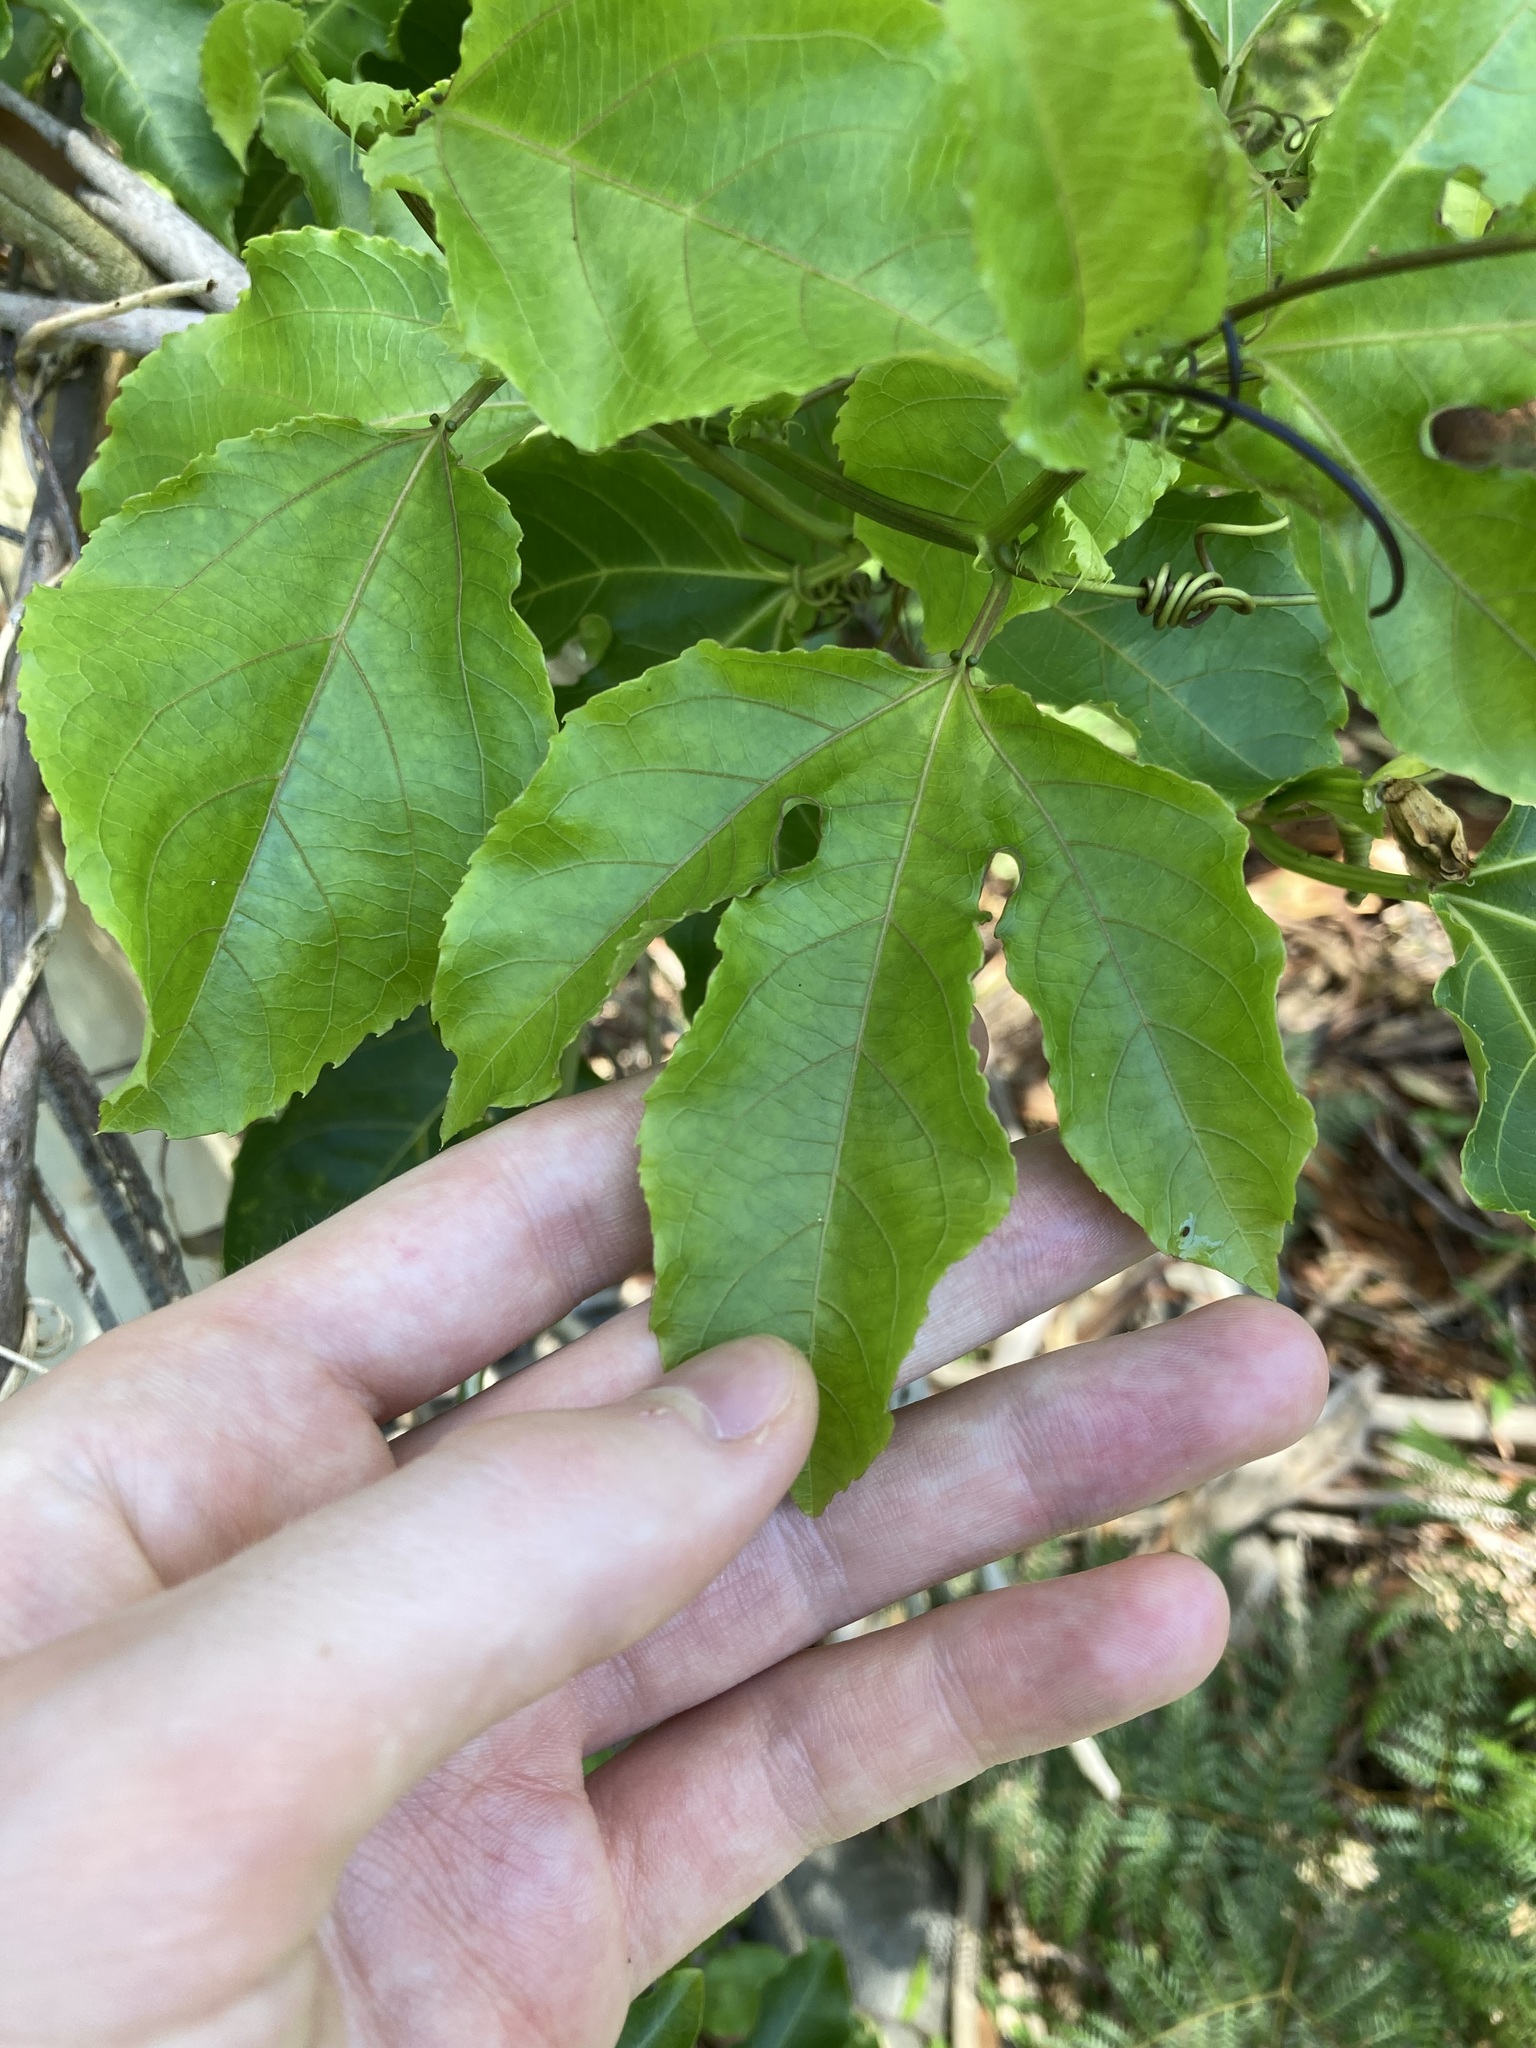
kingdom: Plantae
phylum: Tracheophyta
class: Magnoliopsida
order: Malpighiales
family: Passifloraceae
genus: Passiflora
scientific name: Passiflora edulis
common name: Purple granadilla
